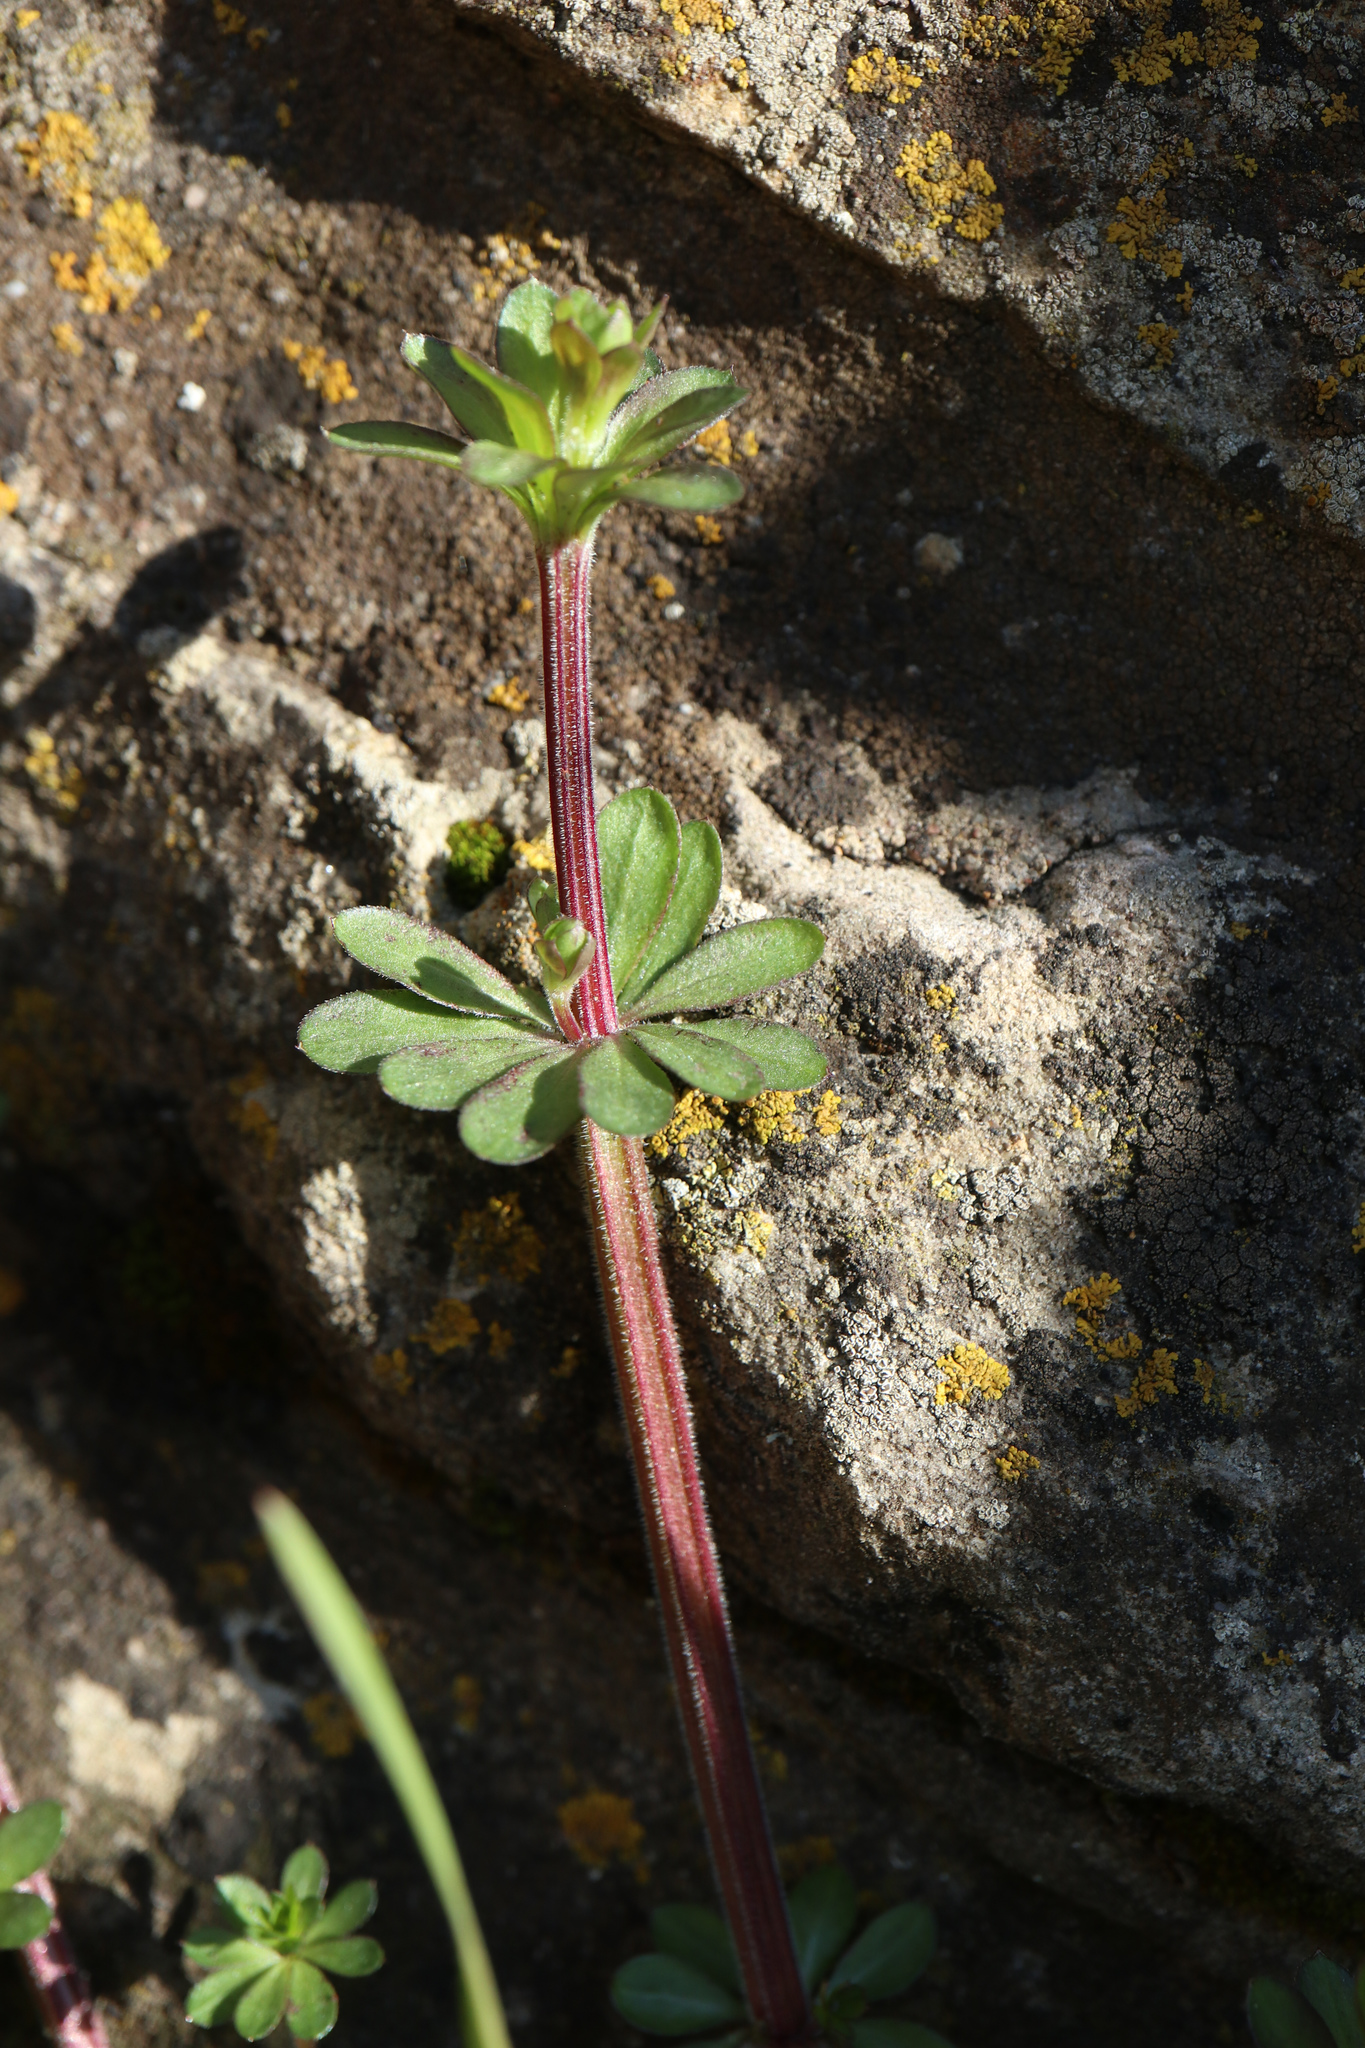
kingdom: Plantae
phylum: Tracheophyta
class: Magnoliopsida
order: Gentianales
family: Rubiaceae
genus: Galium
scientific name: Galium mollugo
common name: Hedge bedstraw
